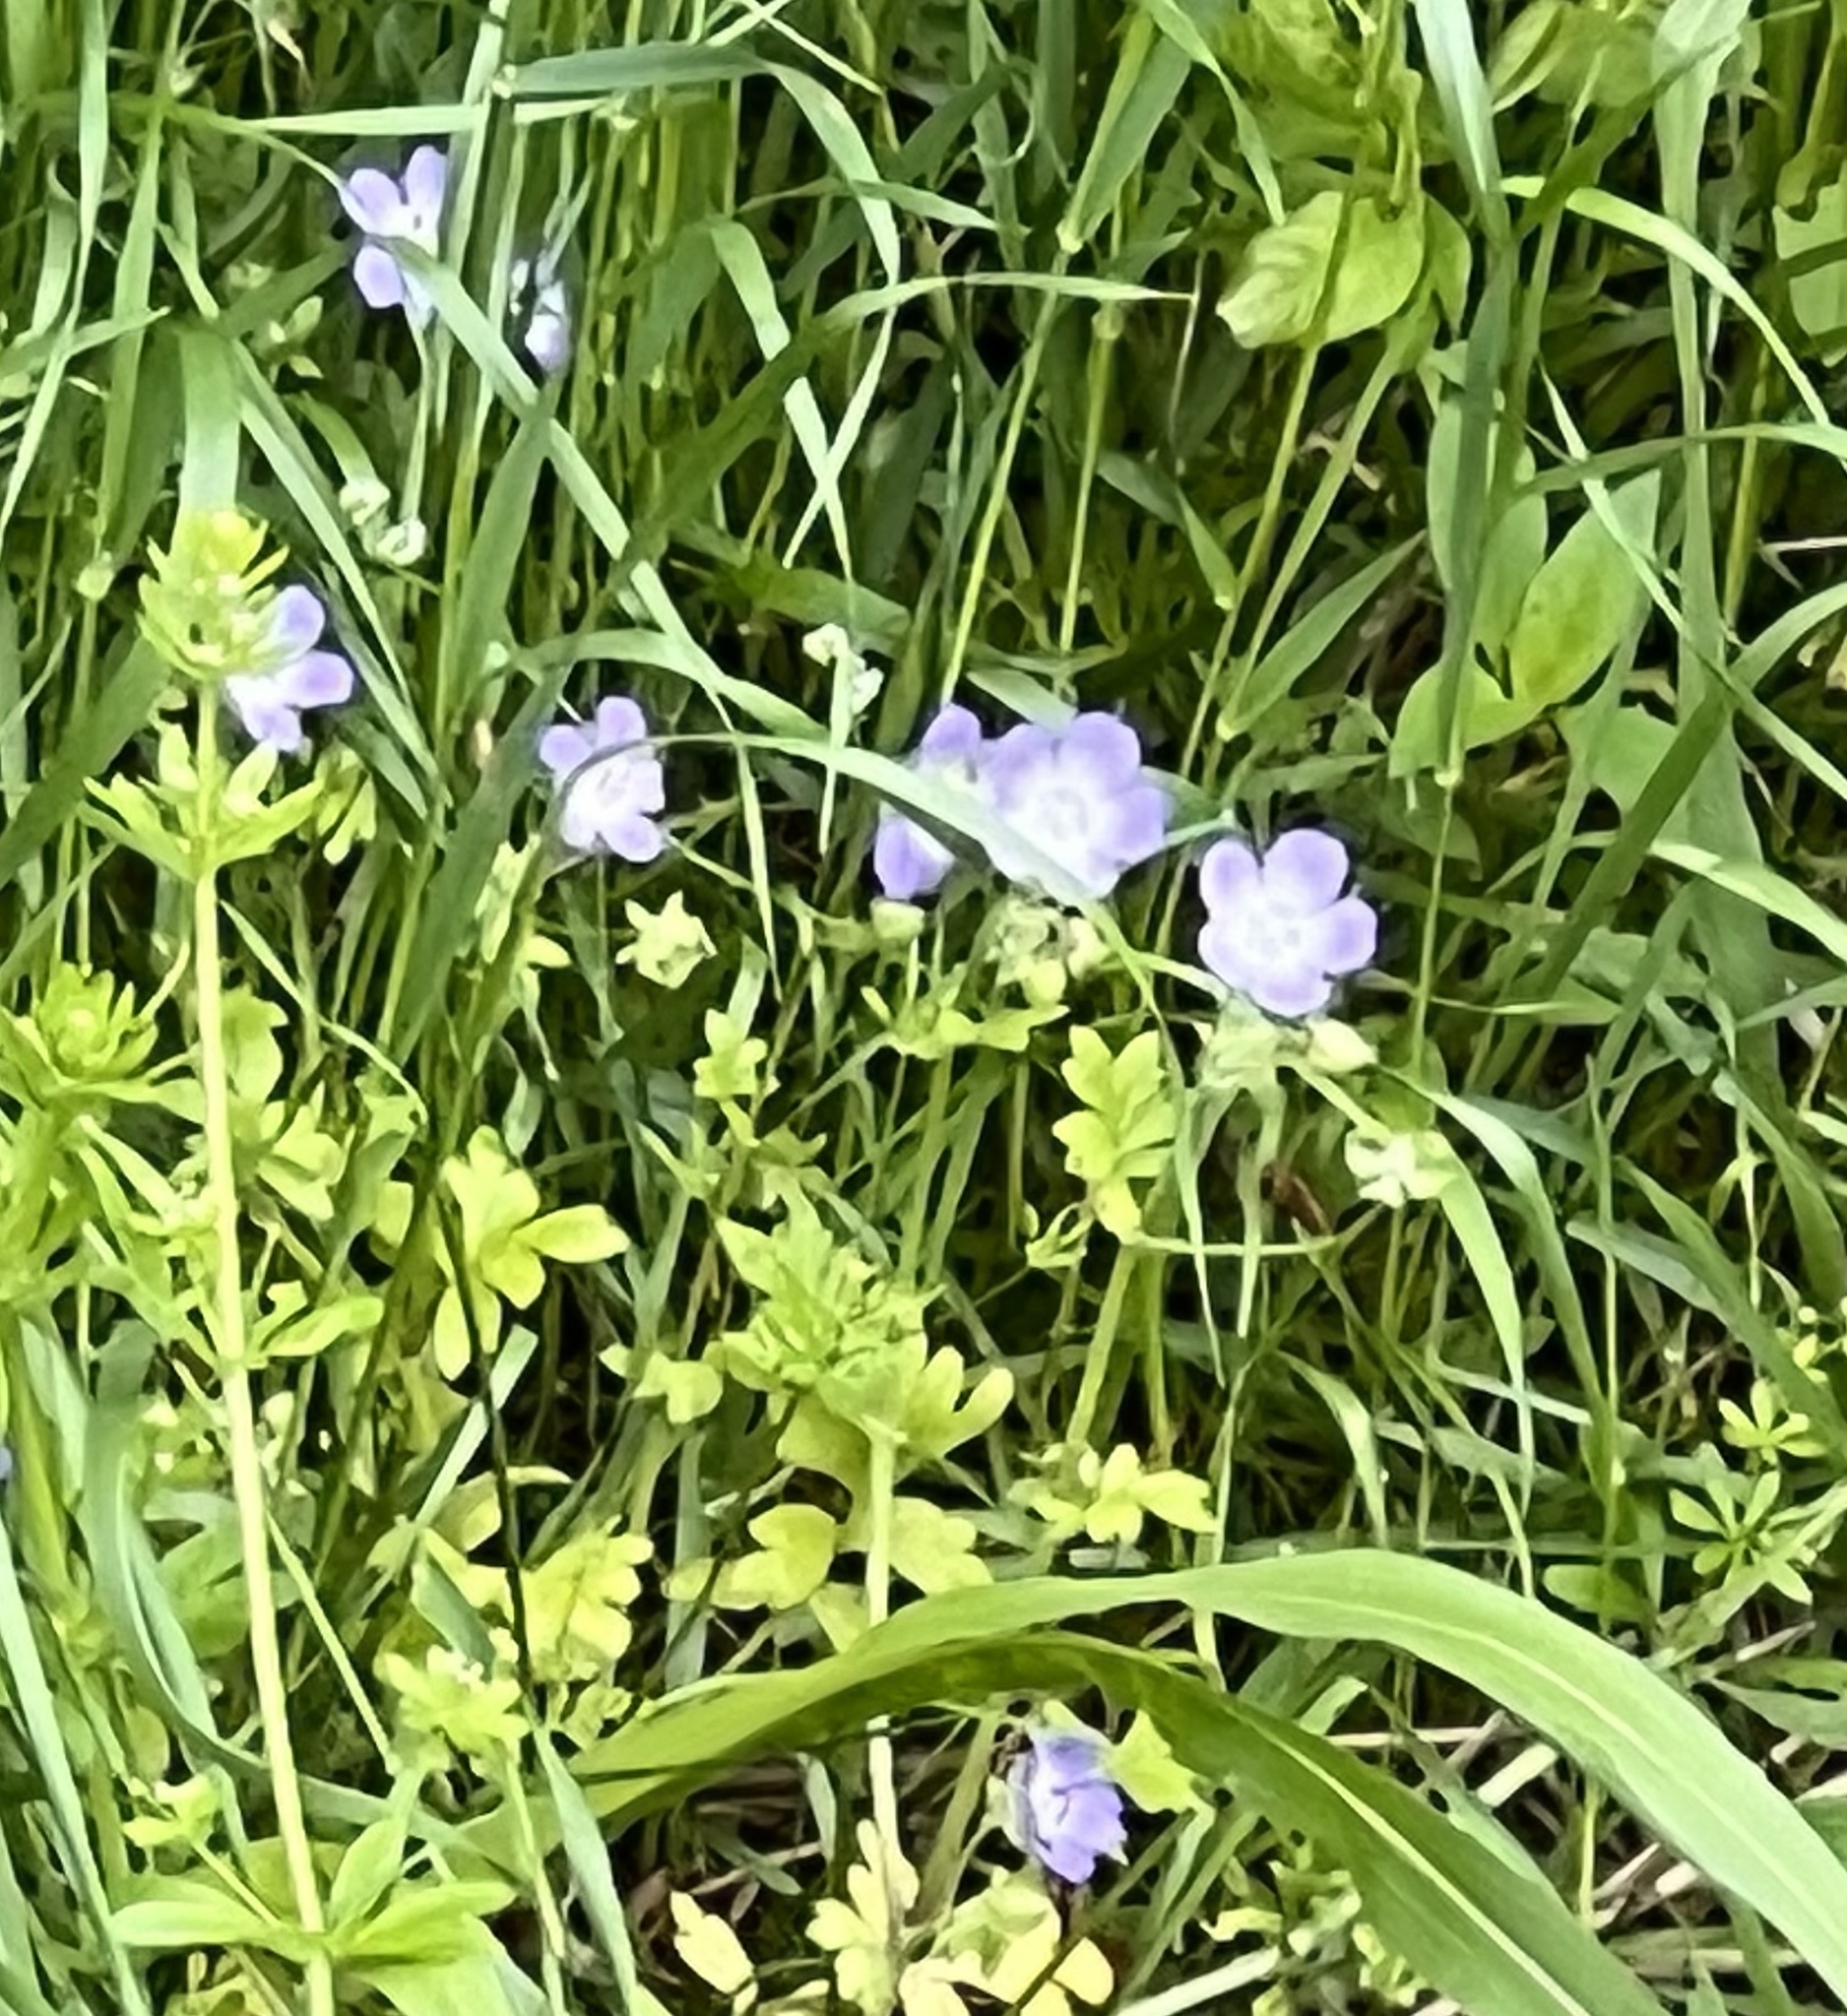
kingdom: Plantae
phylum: Tracheophyta
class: Magnoliopsida
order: Boraginales
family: Hydrophyllaceae
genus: Nemophila
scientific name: Nemophila phacelioides
